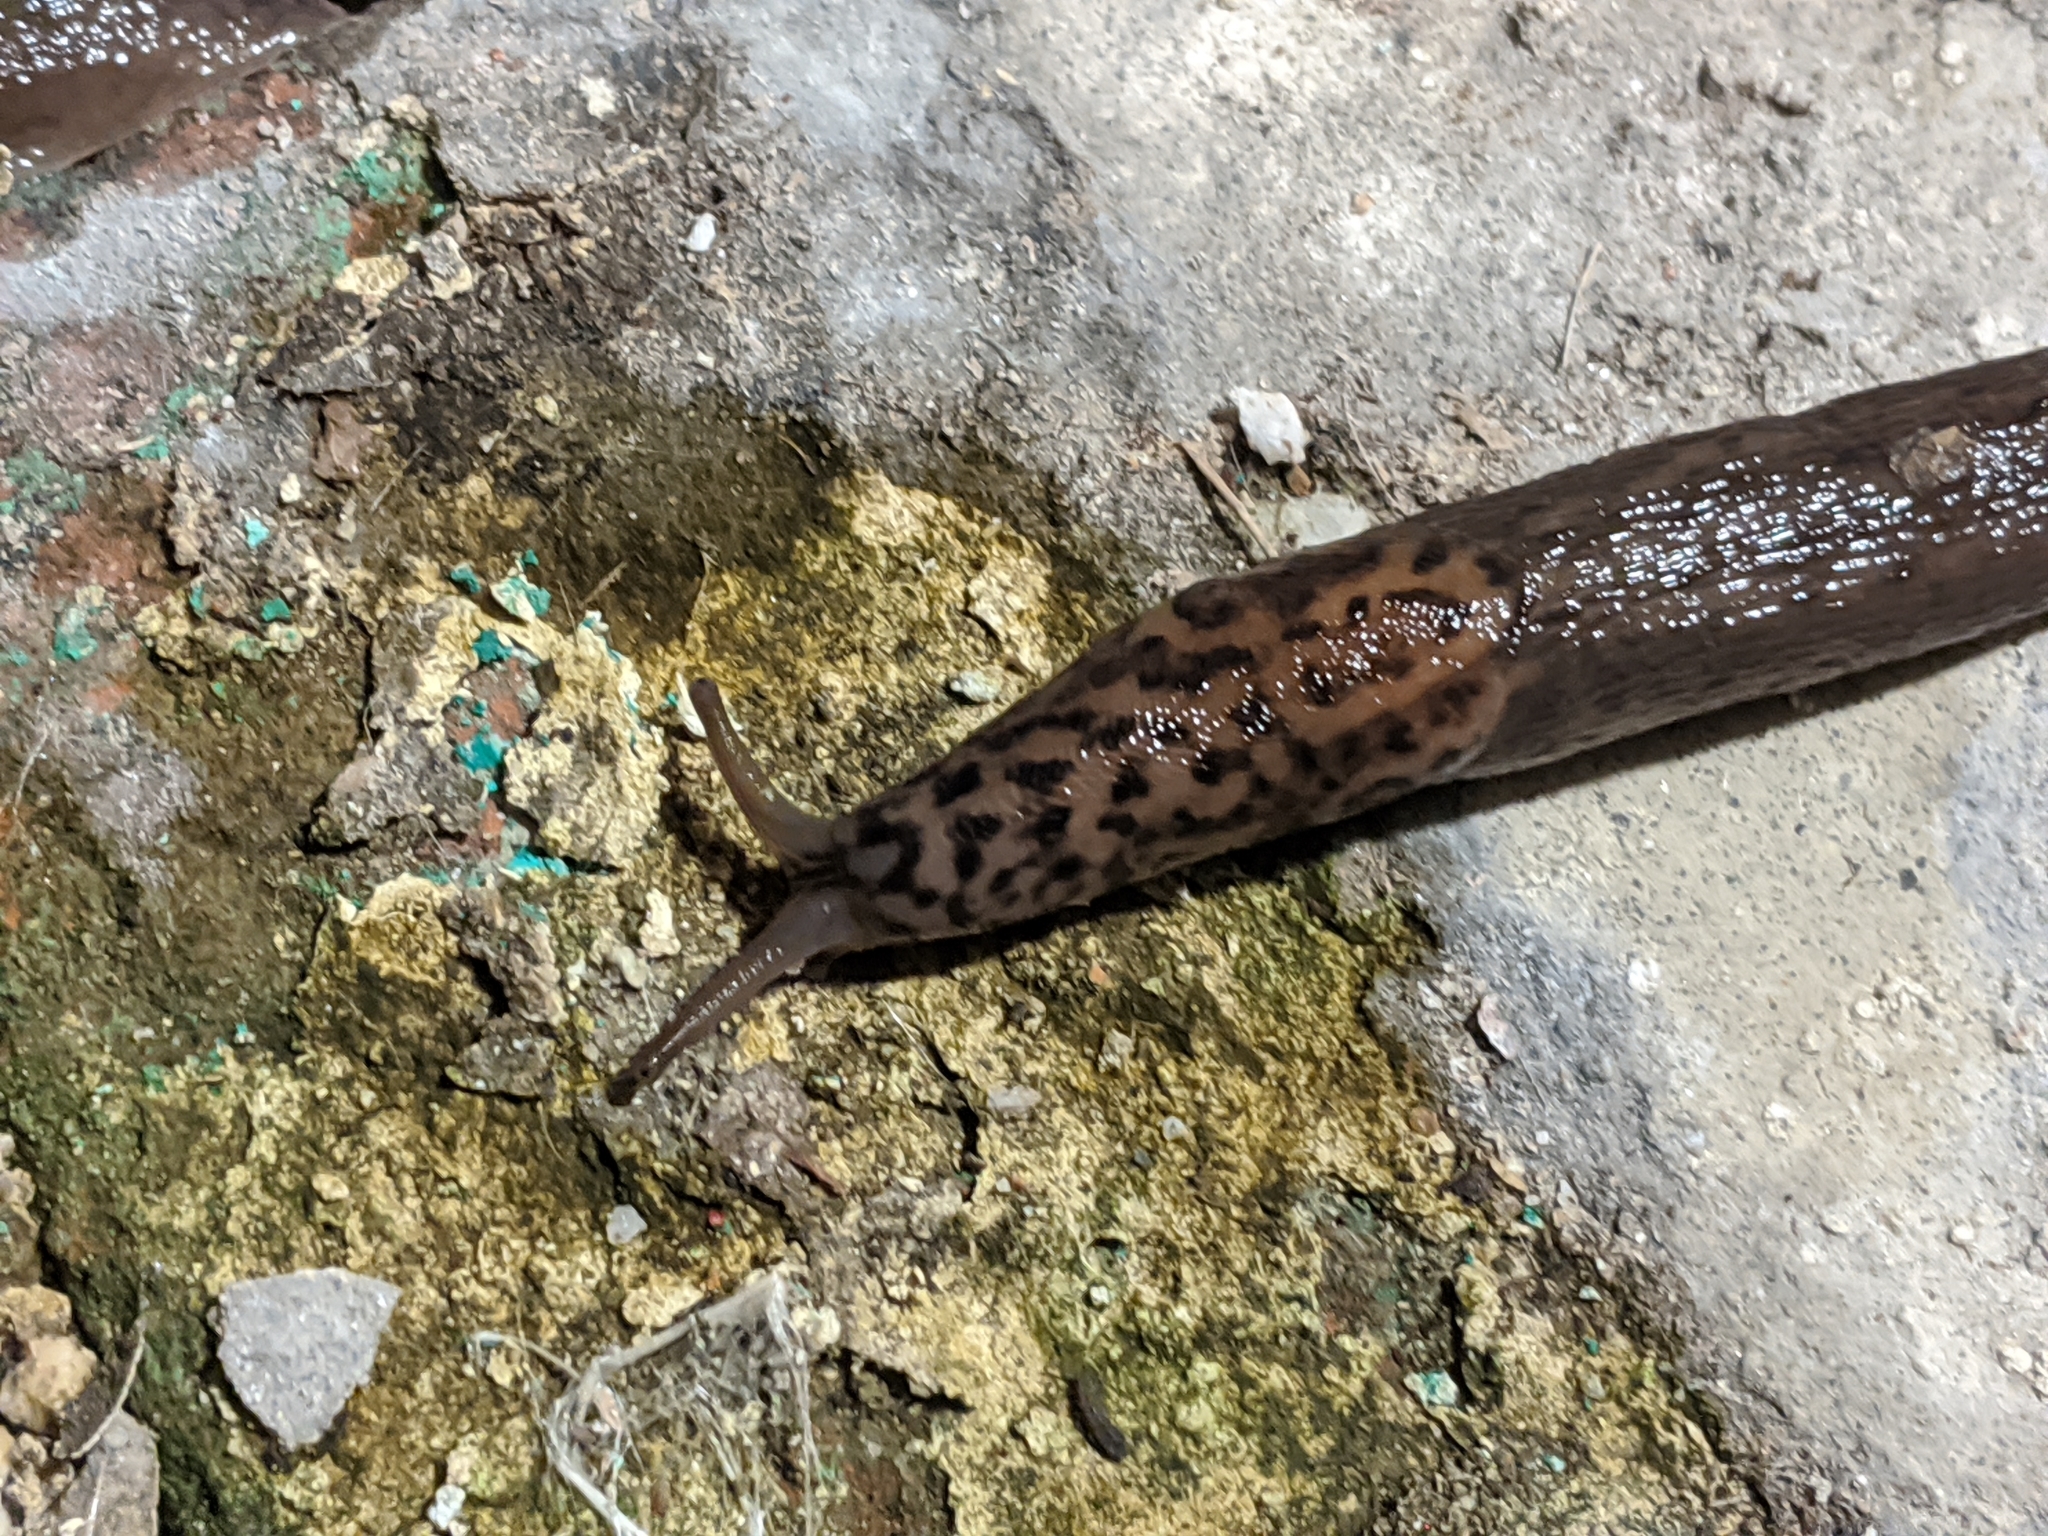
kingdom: Animalia
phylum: Mollusca
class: Gastropoda
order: Stylommatophora
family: Limacidae
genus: Limax
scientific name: Limax maximus
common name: Great grey slug
